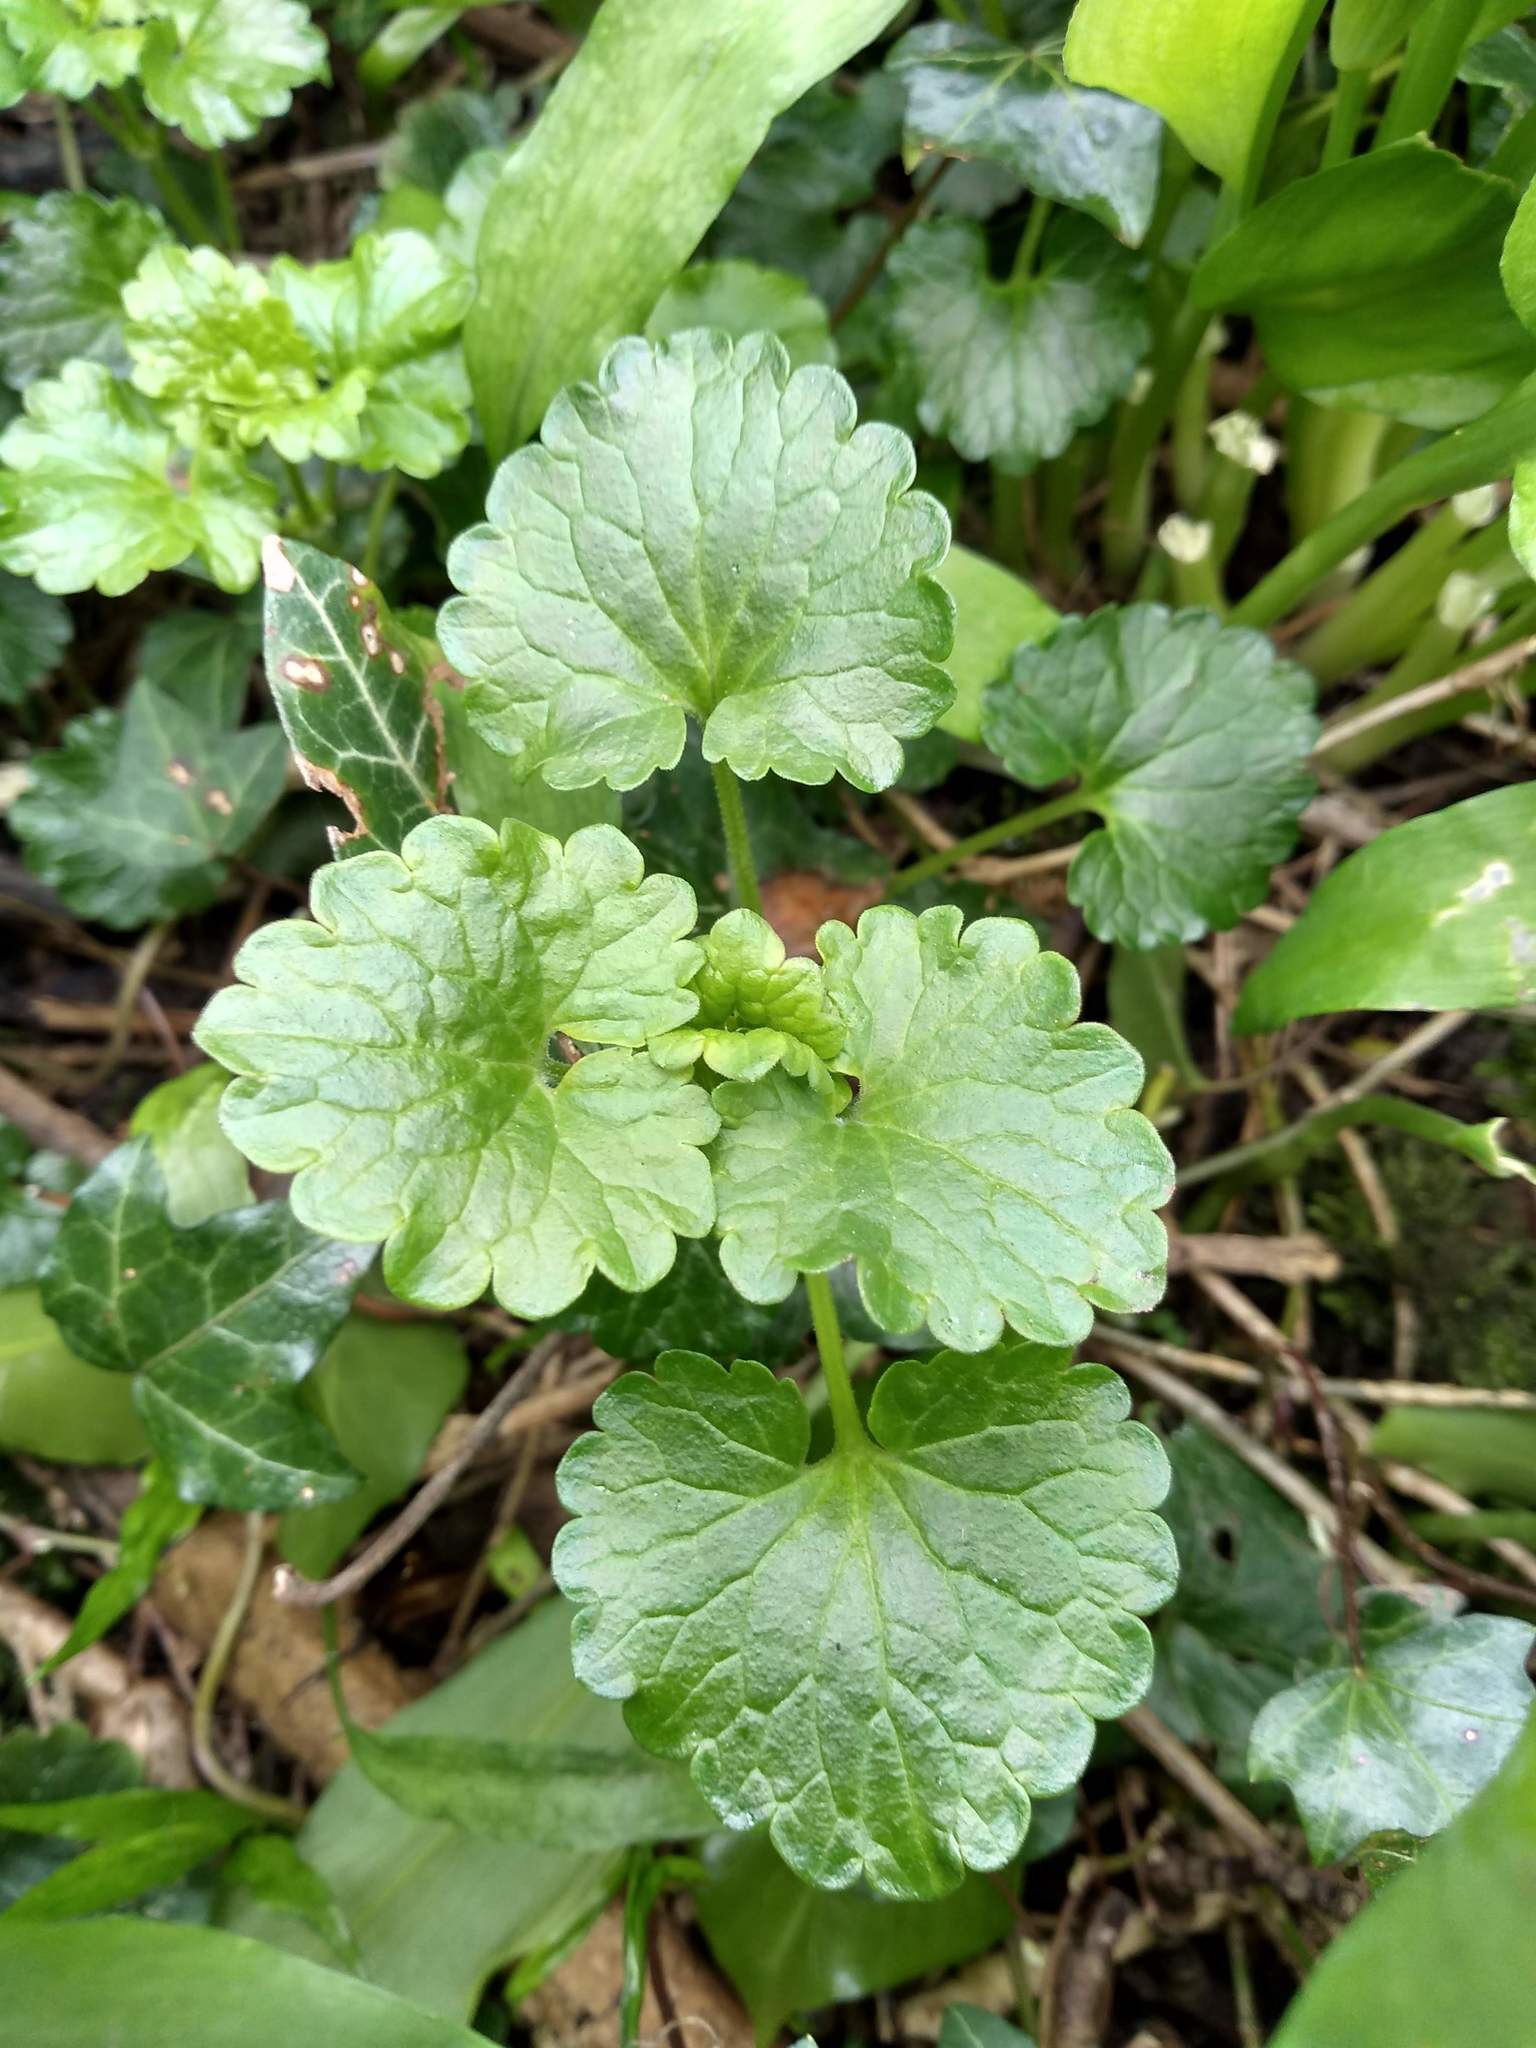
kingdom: Plantae
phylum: Tracheophyta
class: Magnoliopsida
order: Lamiales
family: Lamiaceae
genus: Glechoma
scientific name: Glechoma hederacea
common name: Ground ivy
